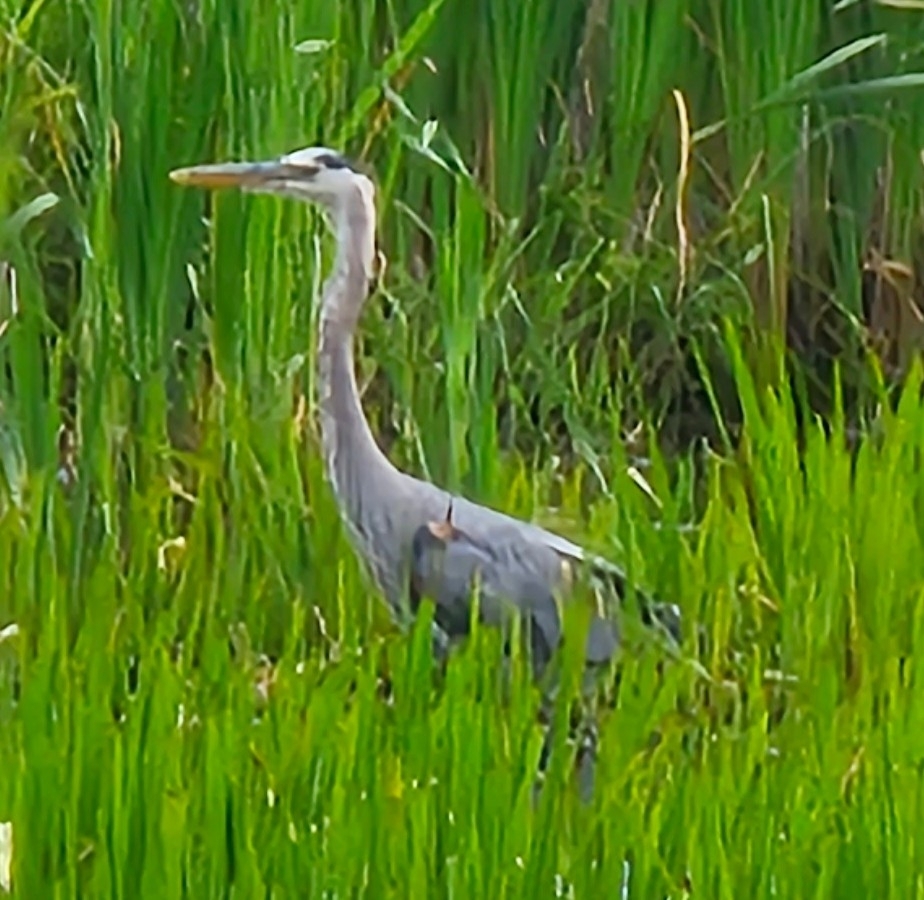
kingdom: Animalia
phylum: Chordata
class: Aves
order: Pelecaniformes
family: Ardeidae
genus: Ardea
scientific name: Ardea herodias
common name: Great blue heron
